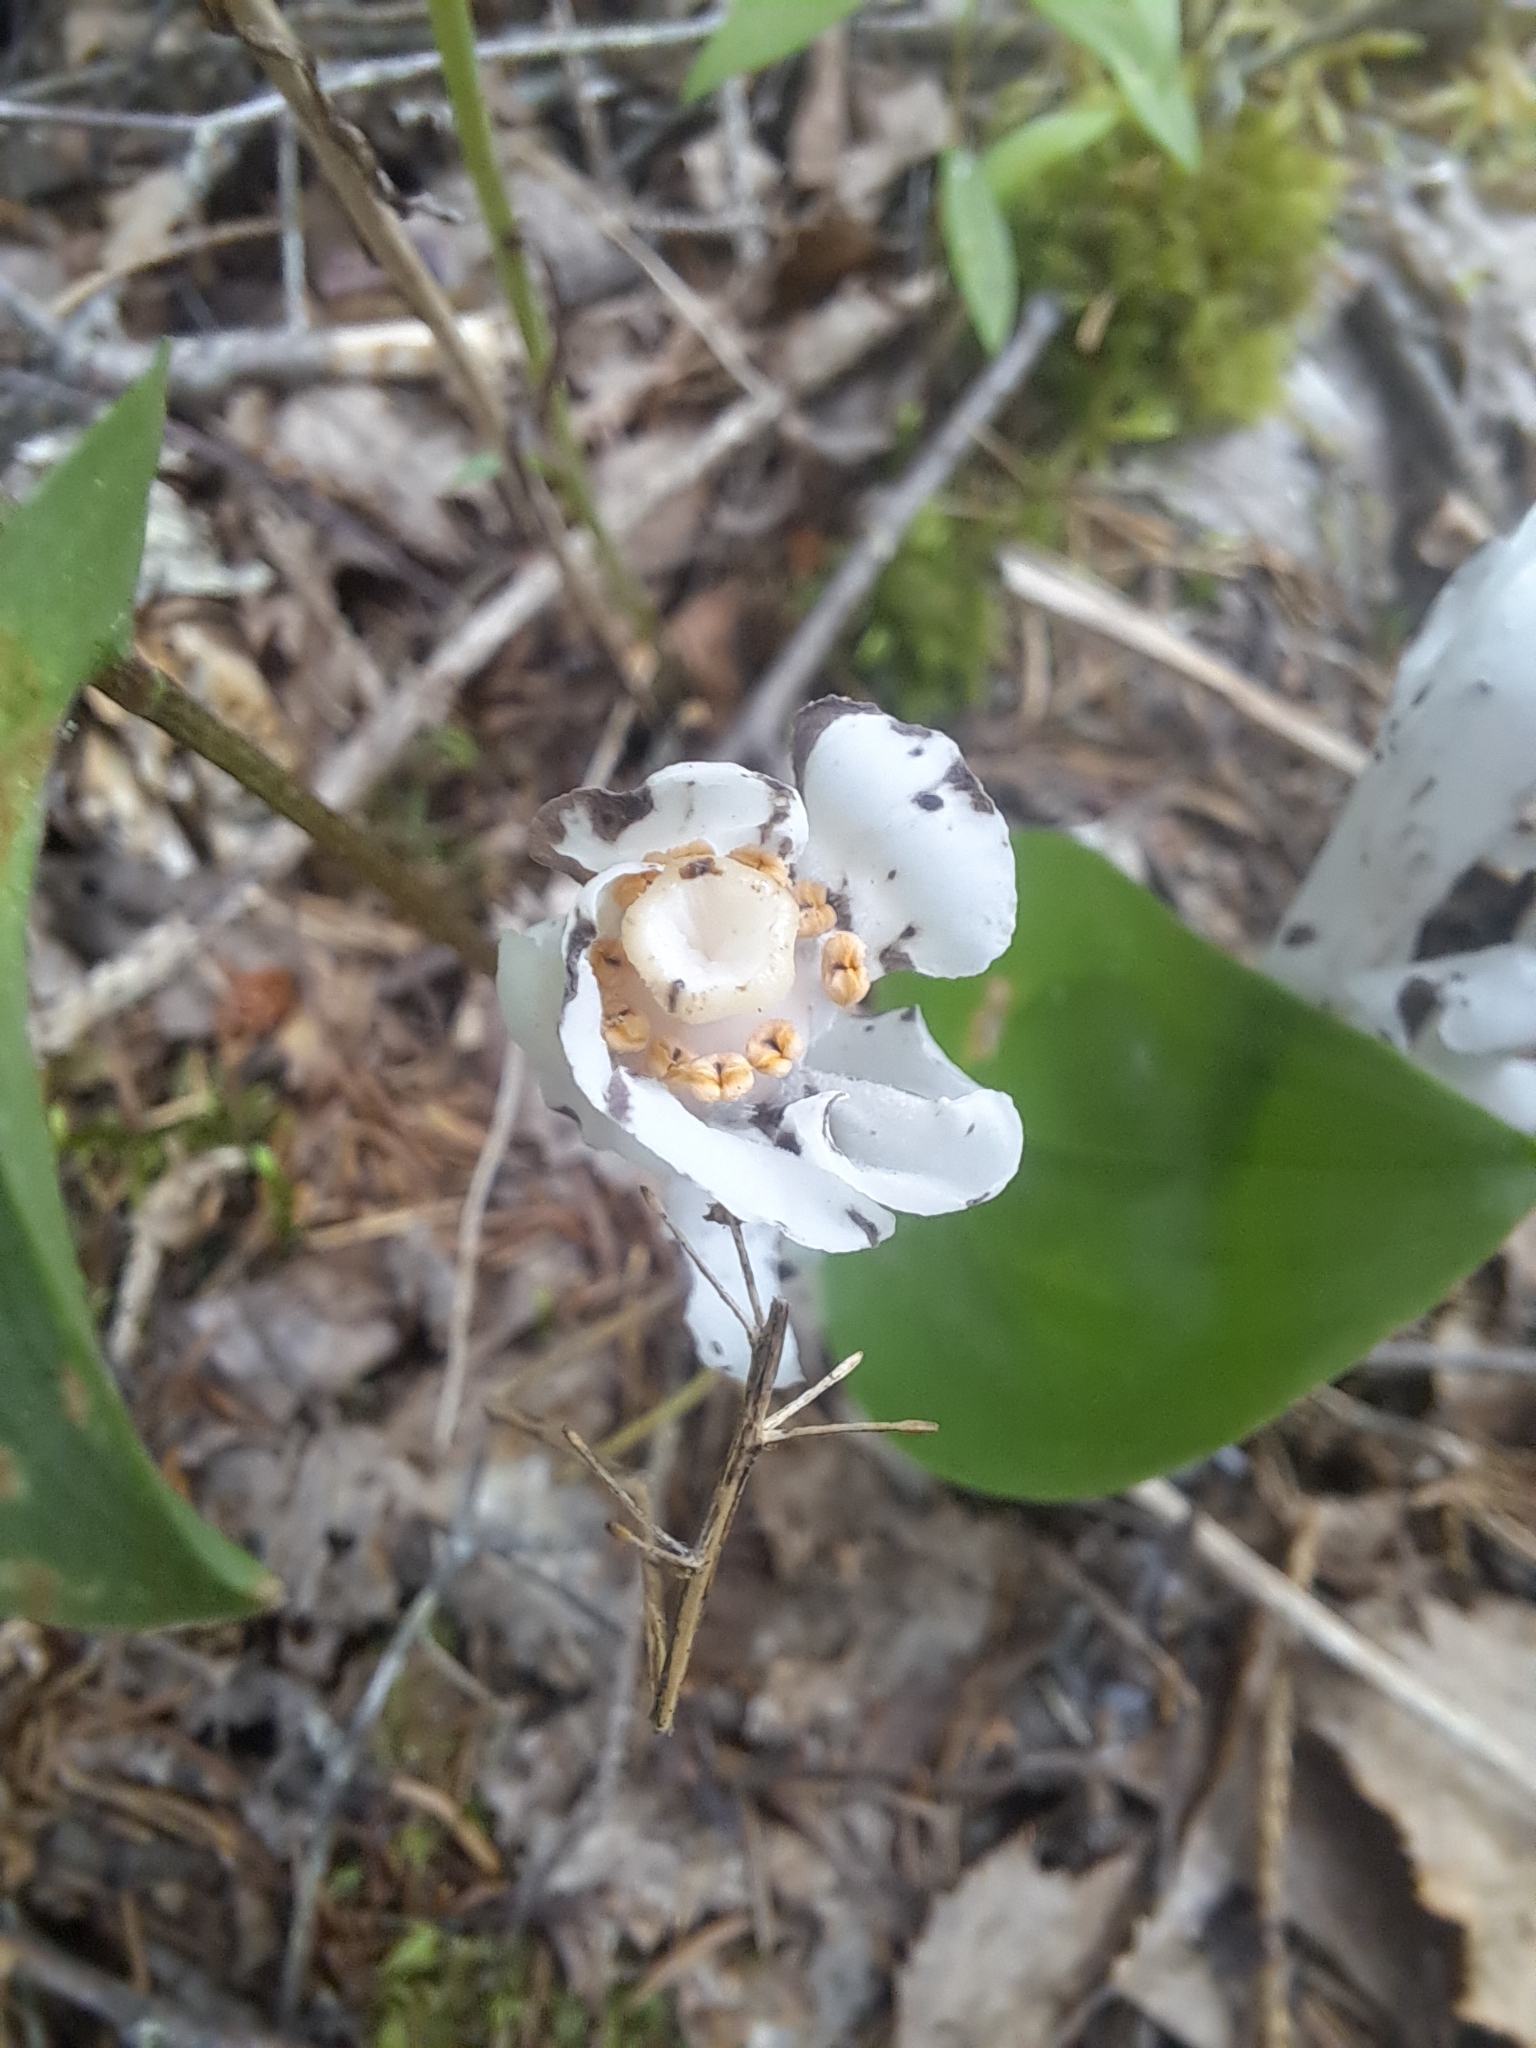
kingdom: Plantae
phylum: Tracheophyta
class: Magnoliopsida
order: Ericales
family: Ericaceae
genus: Monotropa
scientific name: Monotropa uniflora
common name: Convulsion root
